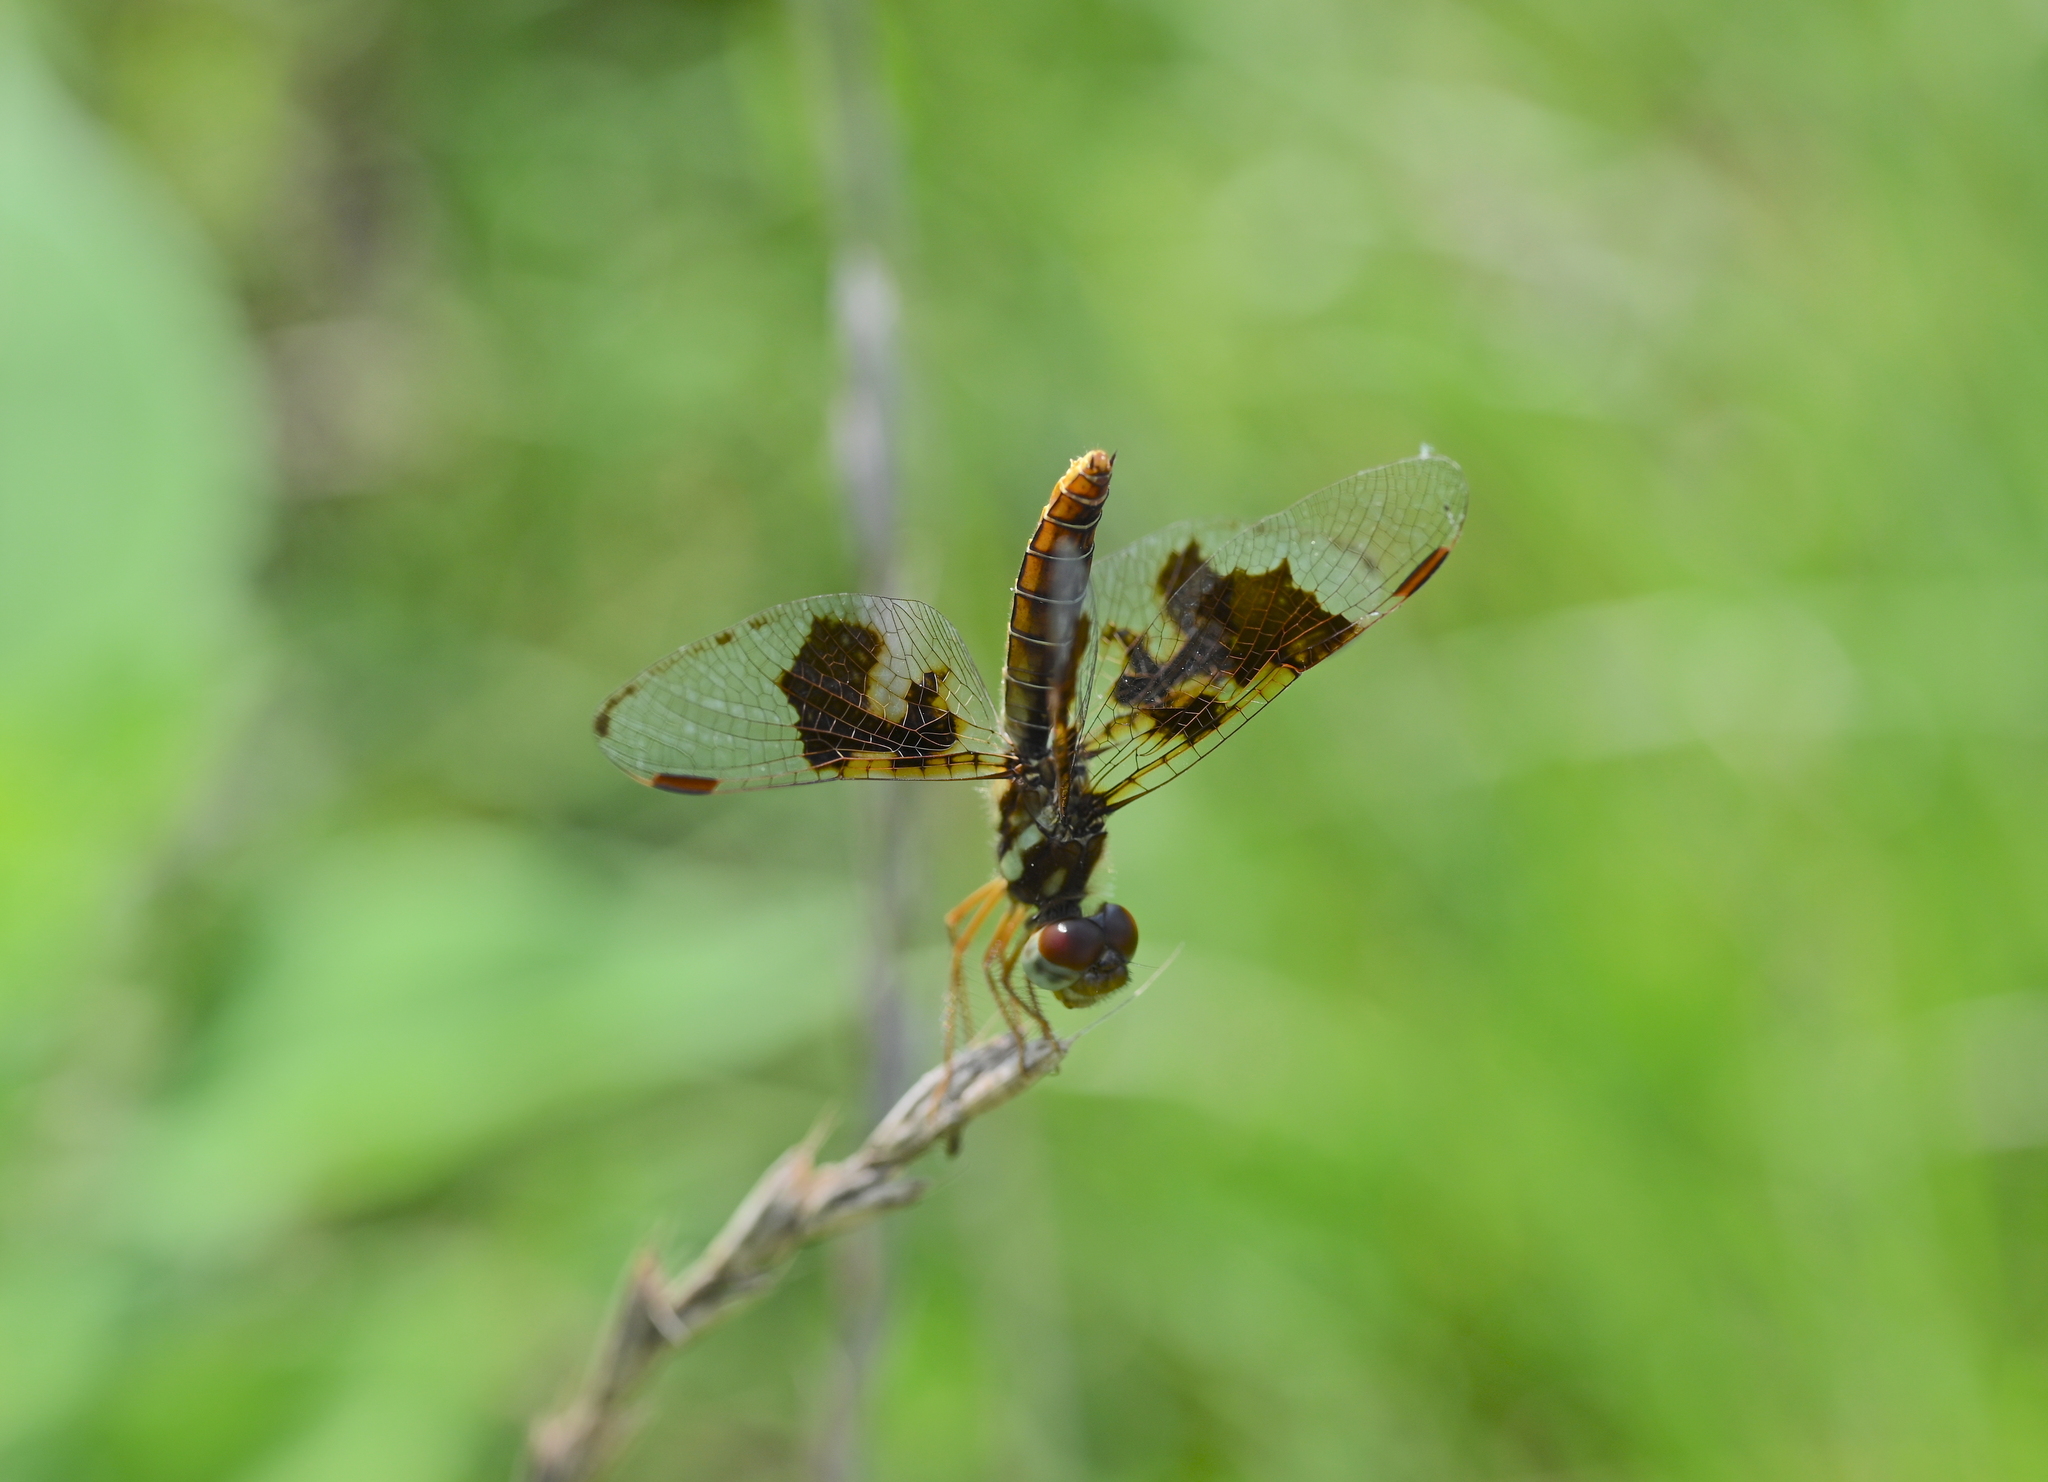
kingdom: Animalia
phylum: Arthropoda
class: Insecta
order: Odonata
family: Libellulidae
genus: Perithemis
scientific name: Perithemis tenera
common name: Eastern amberwing
